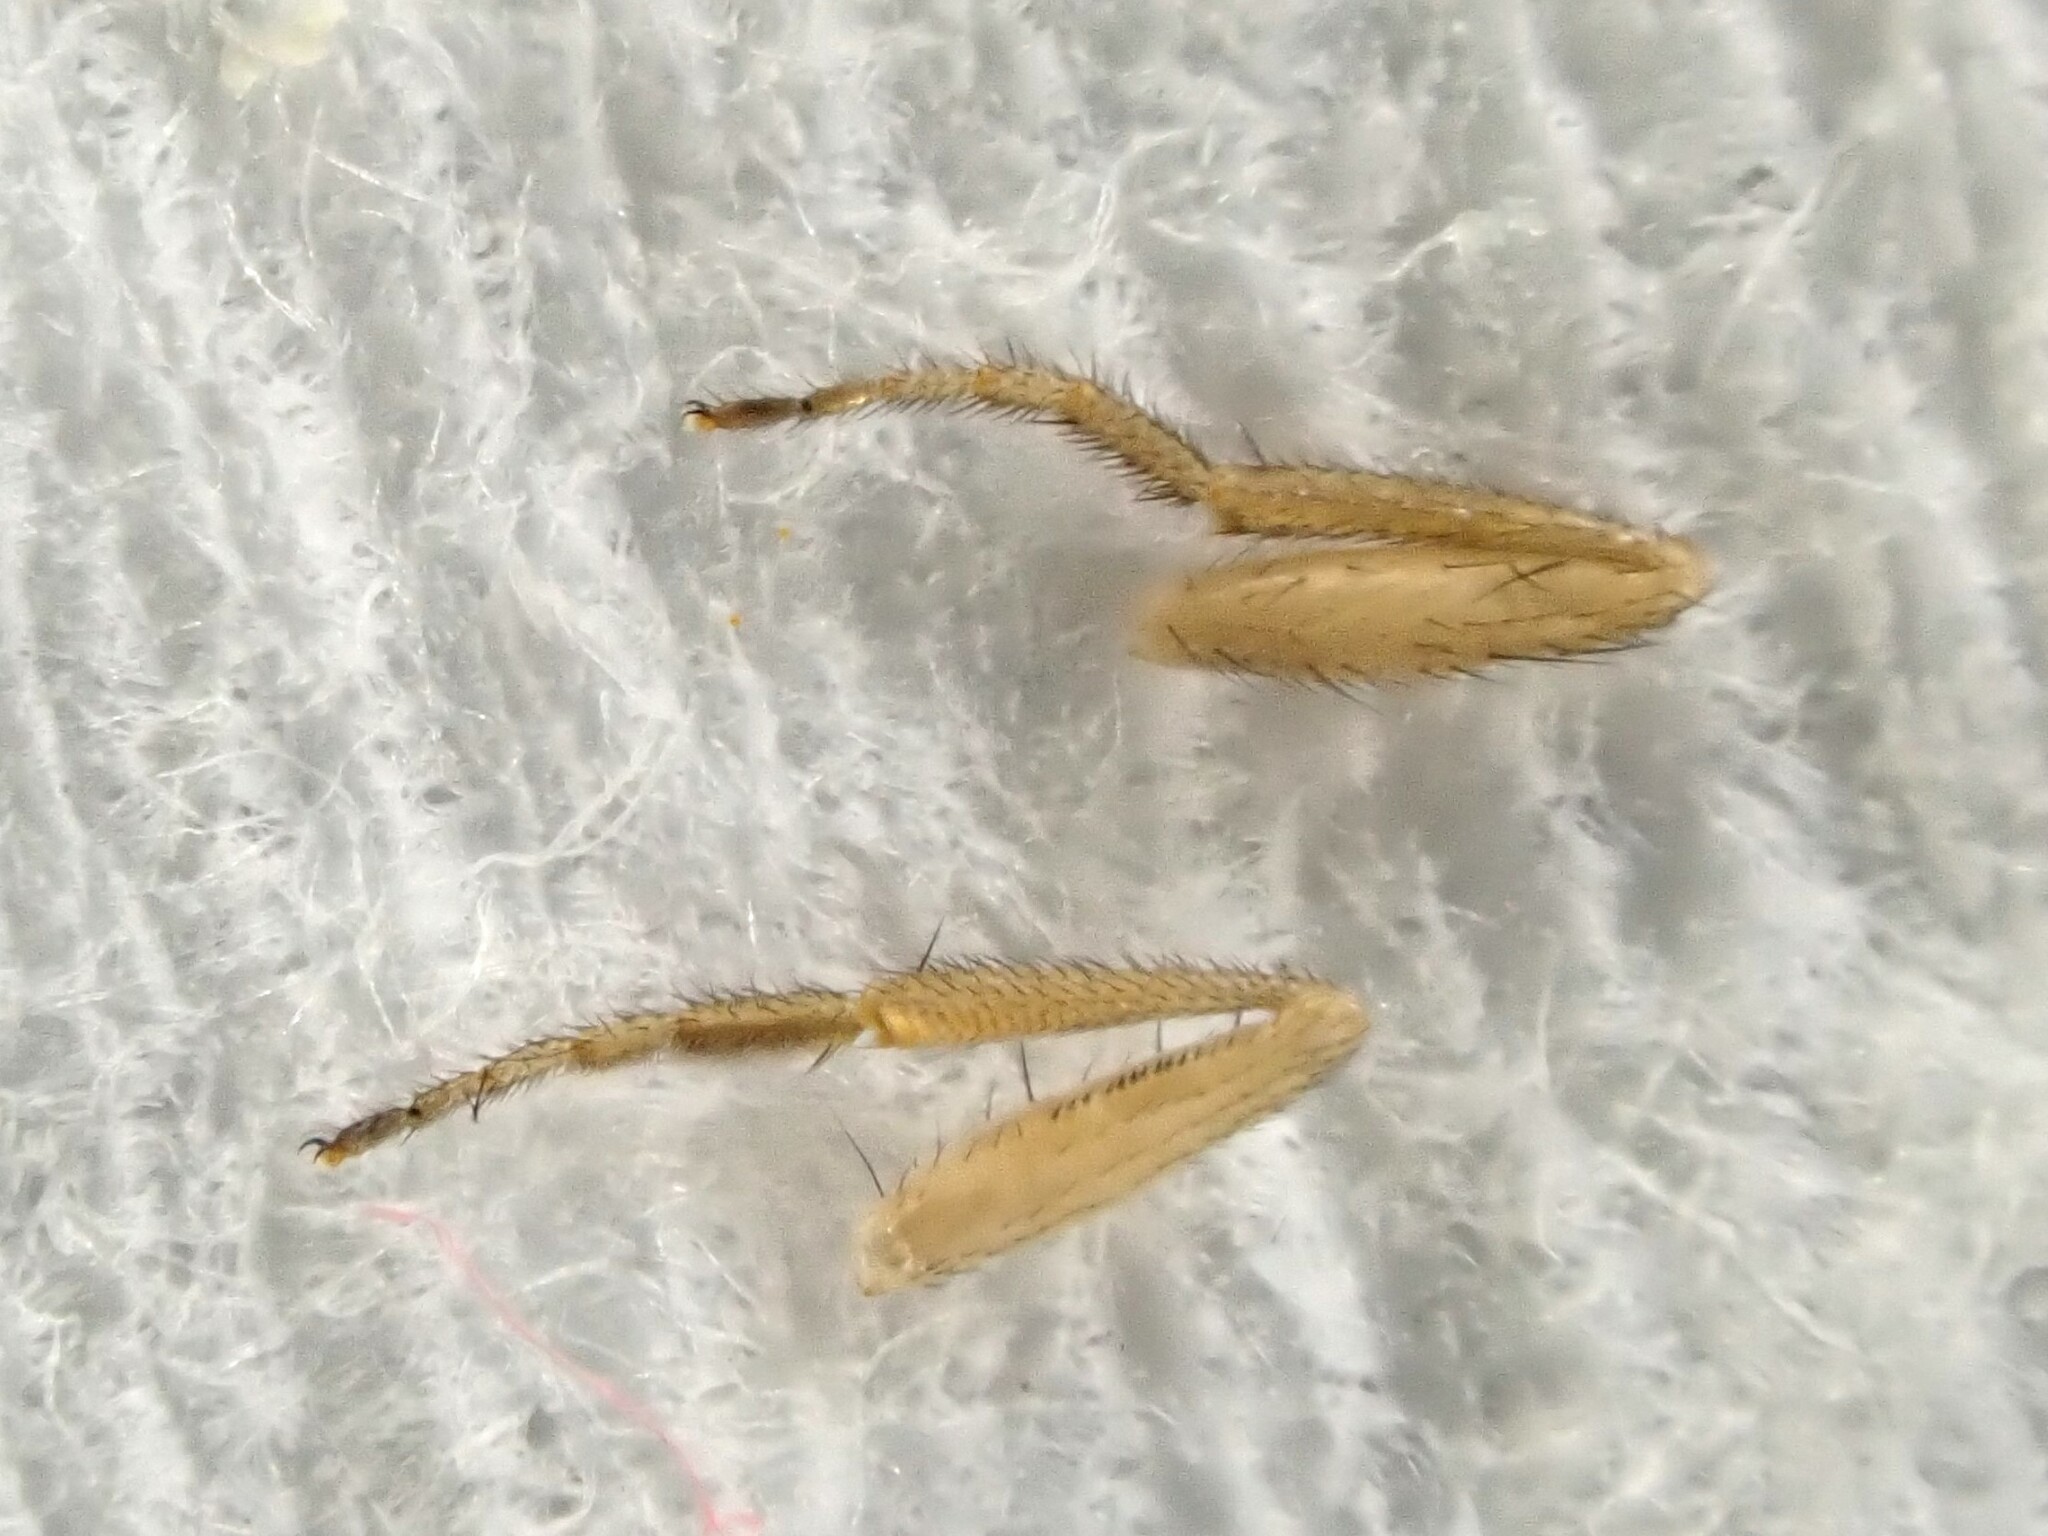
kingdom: Animalia
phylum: Arthropoda
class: Insecta
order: Diptera
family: Drosophilidae
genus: Drosophila
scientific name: Drosophila immigrans
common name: Pomace fly
